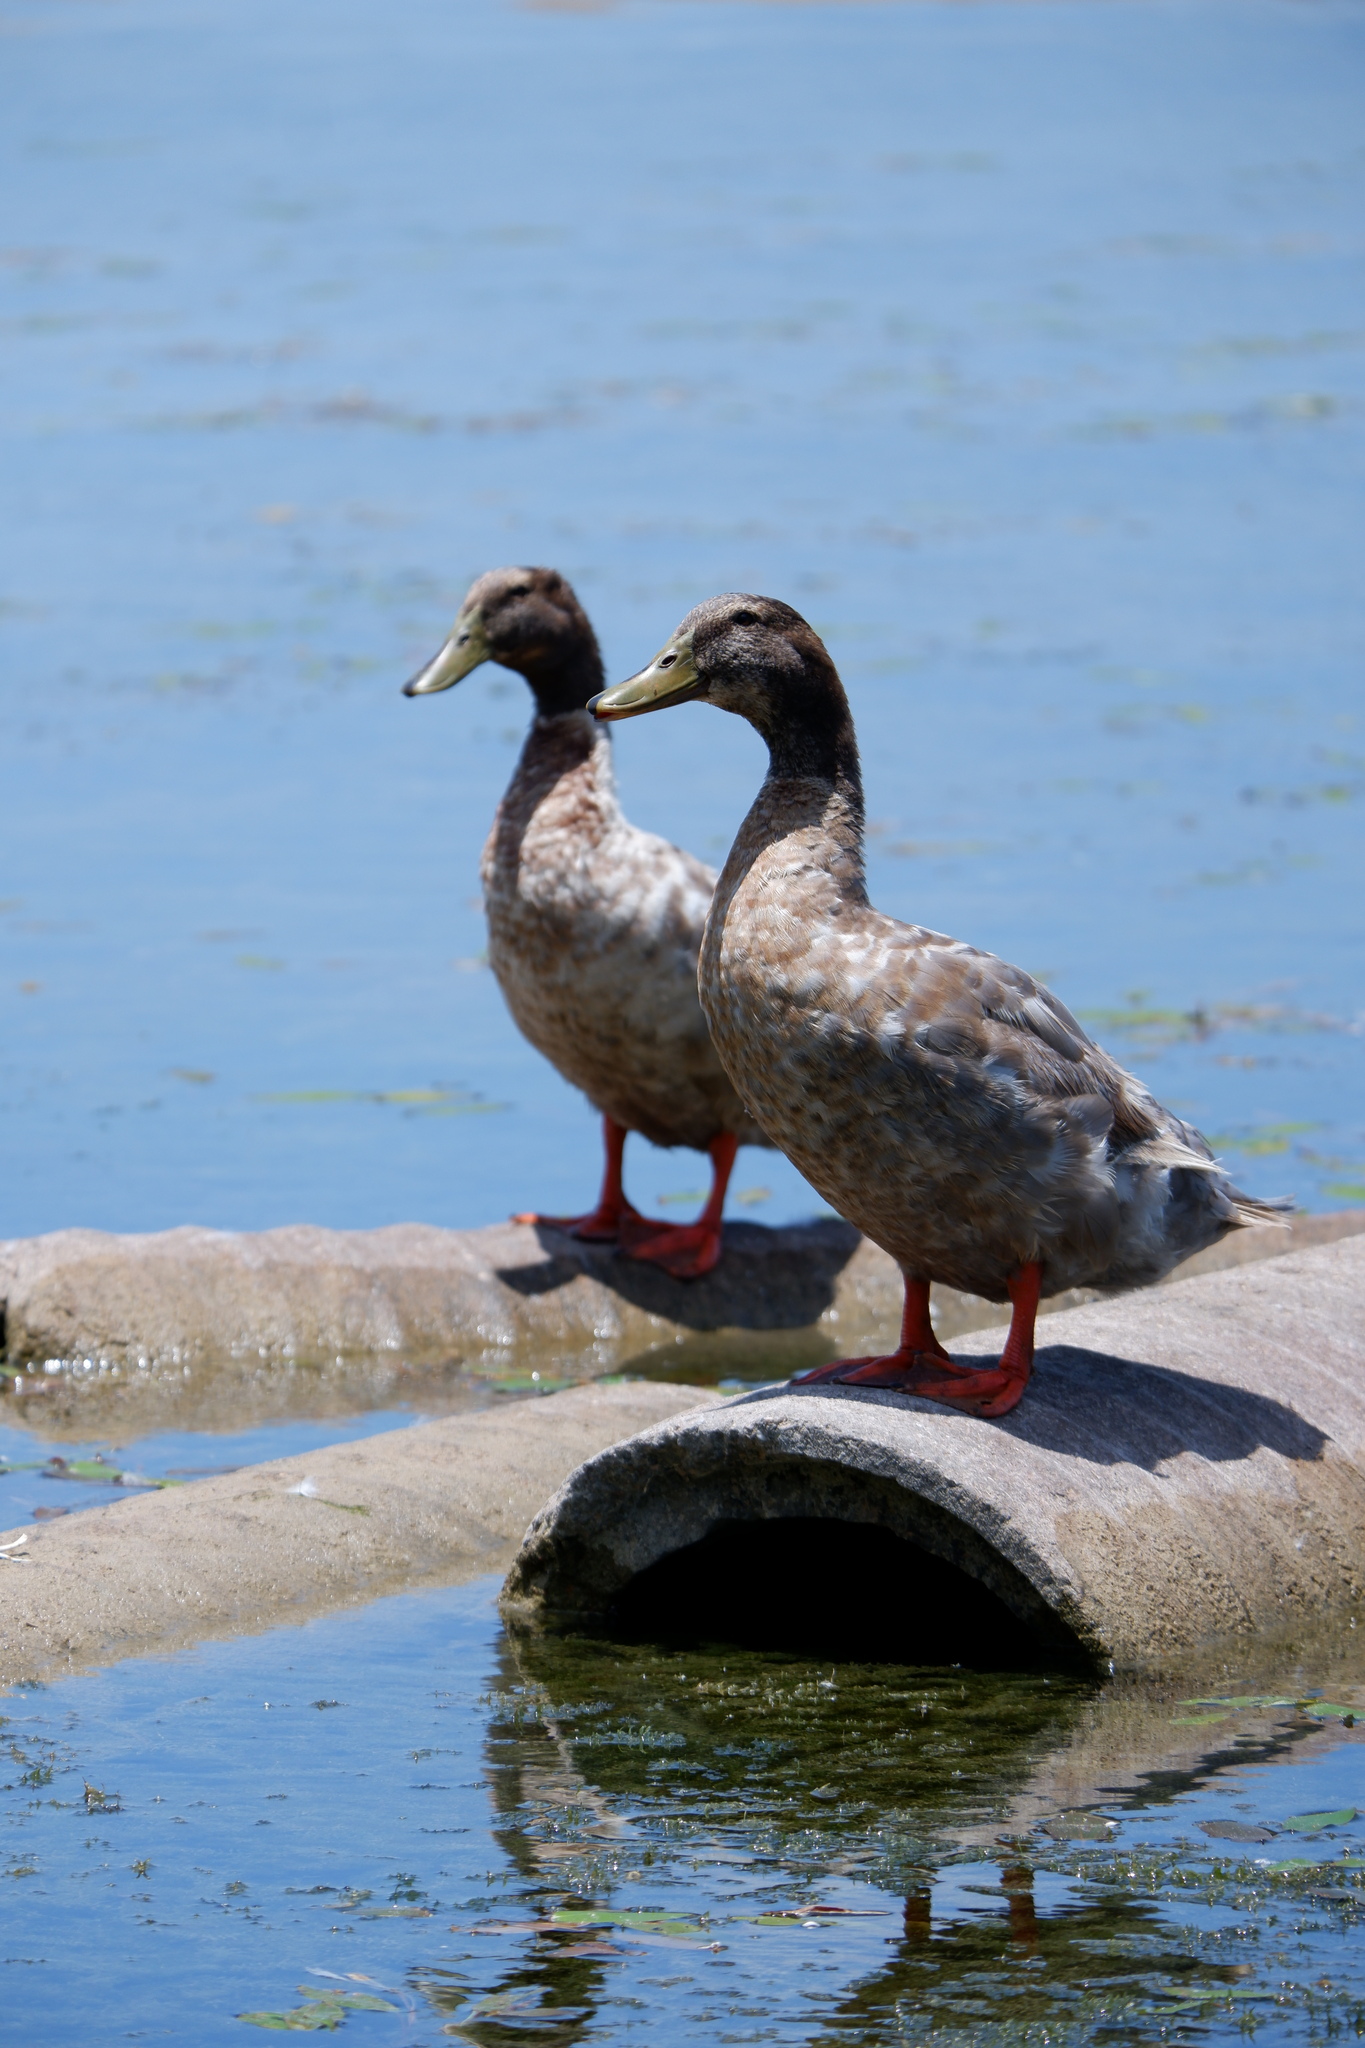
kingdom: Animalia
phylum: Chordata
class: Aves
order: Anseriformes
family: Anatidae
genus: Anas
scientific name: Anas platyrhynchos
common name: Mallard
